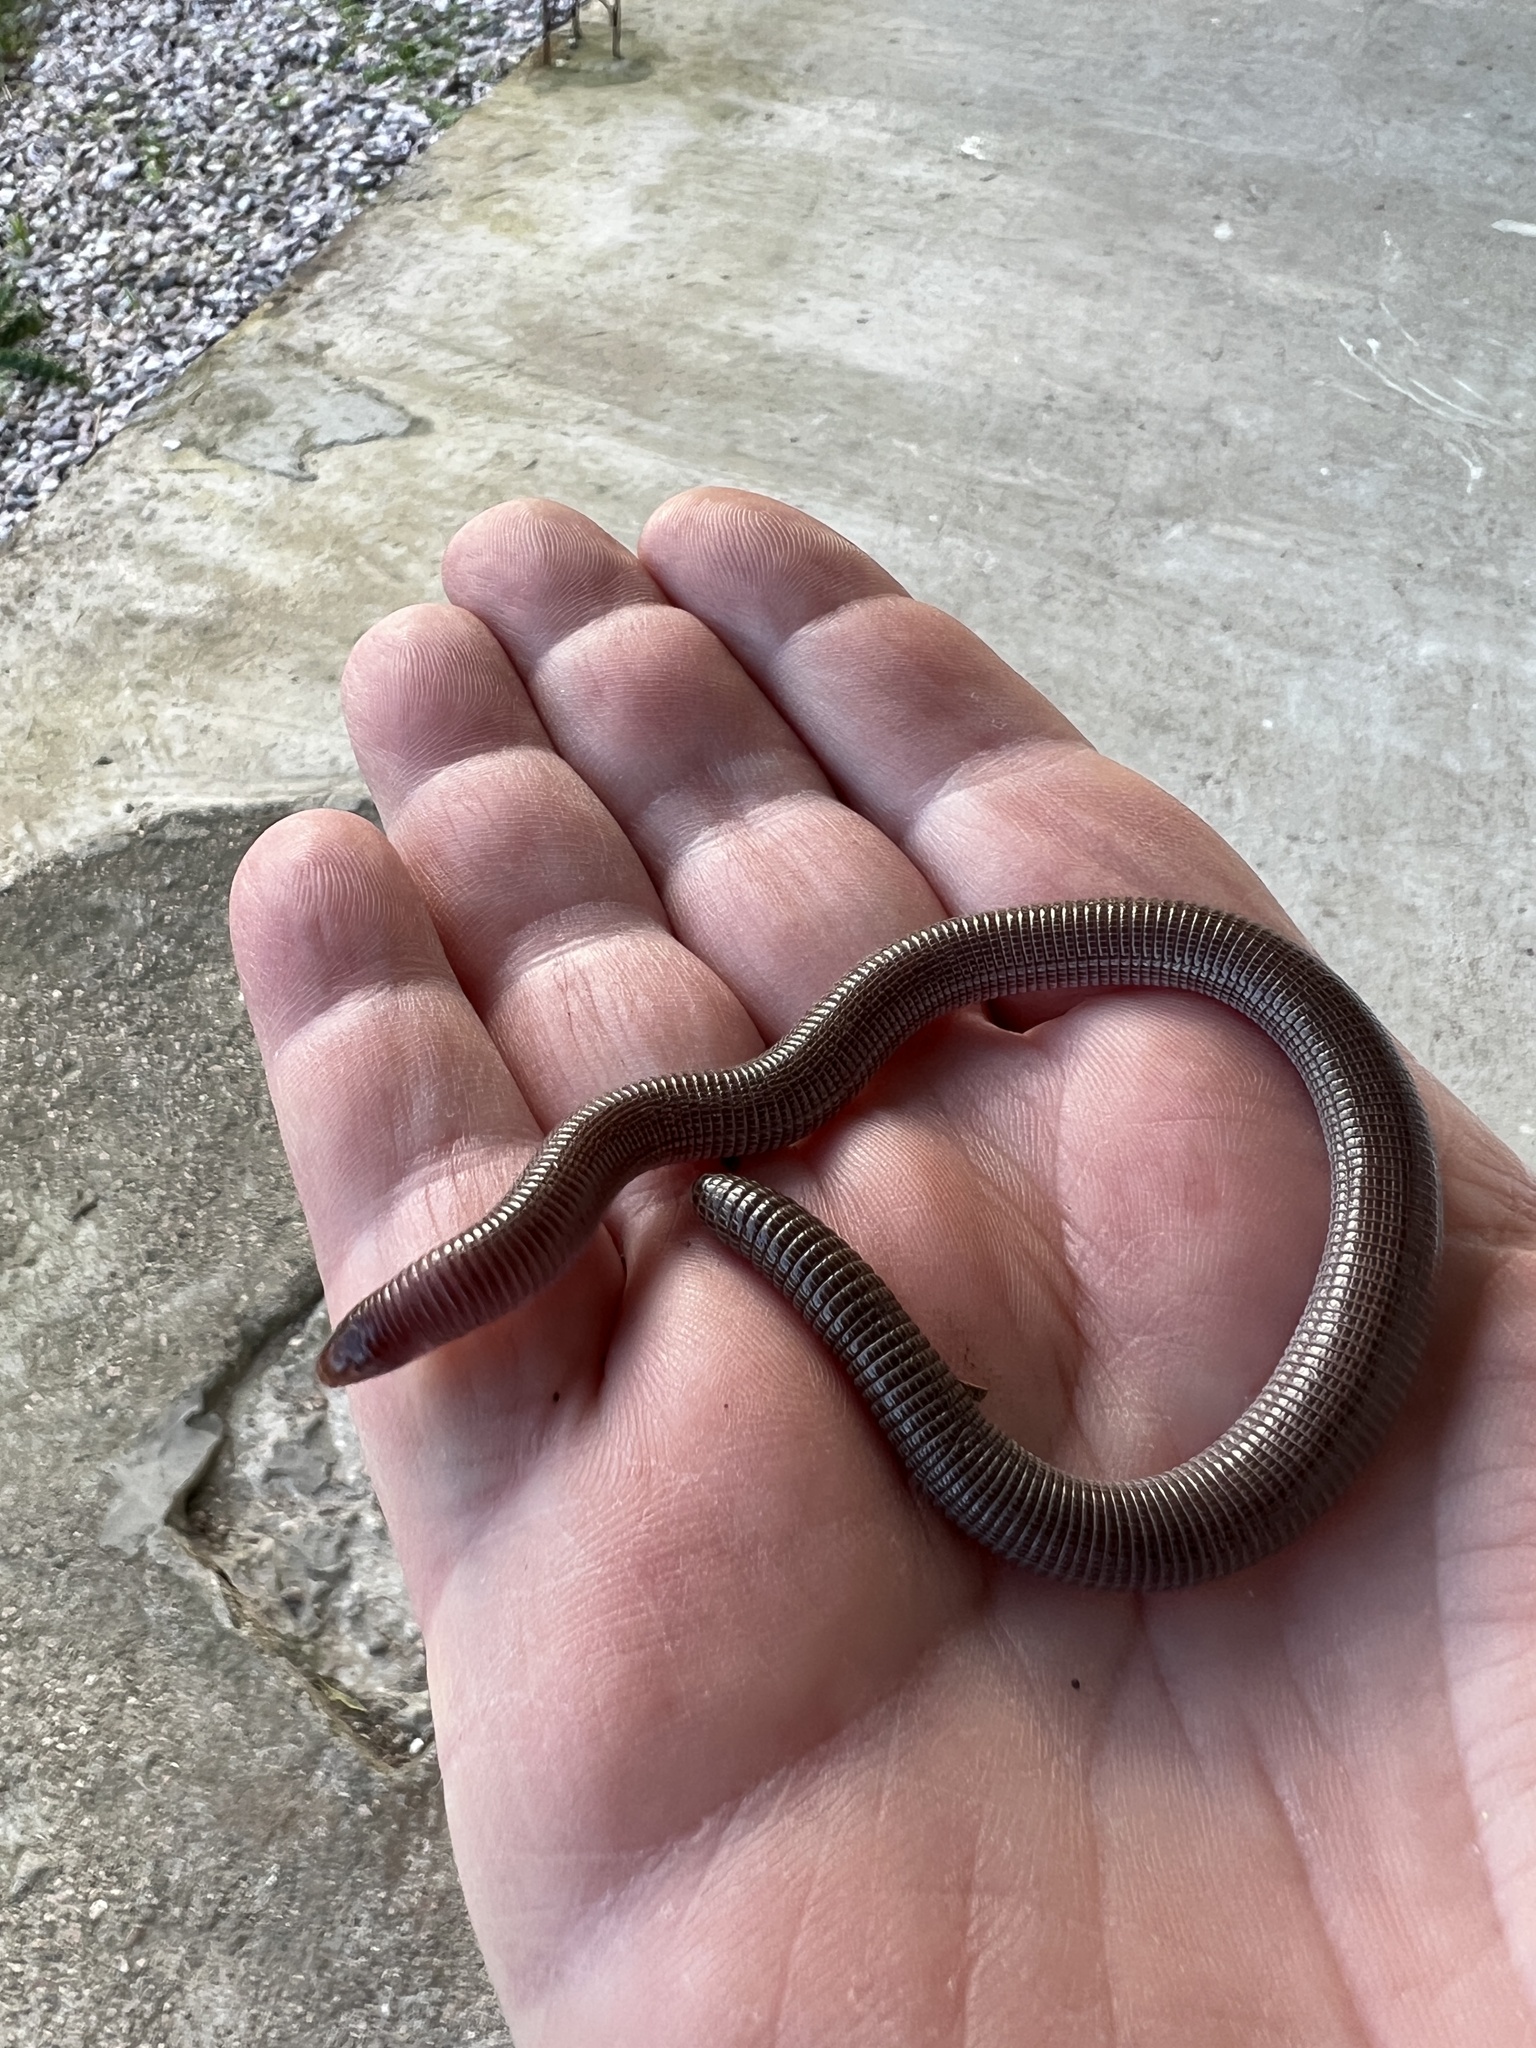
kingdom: Animalia
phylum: Chordata
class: Squamata
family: Amphisbaenidae
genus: Amphisbaena
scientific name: Amphisbaena darwinii
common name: Darwin's ringed worm lizard
